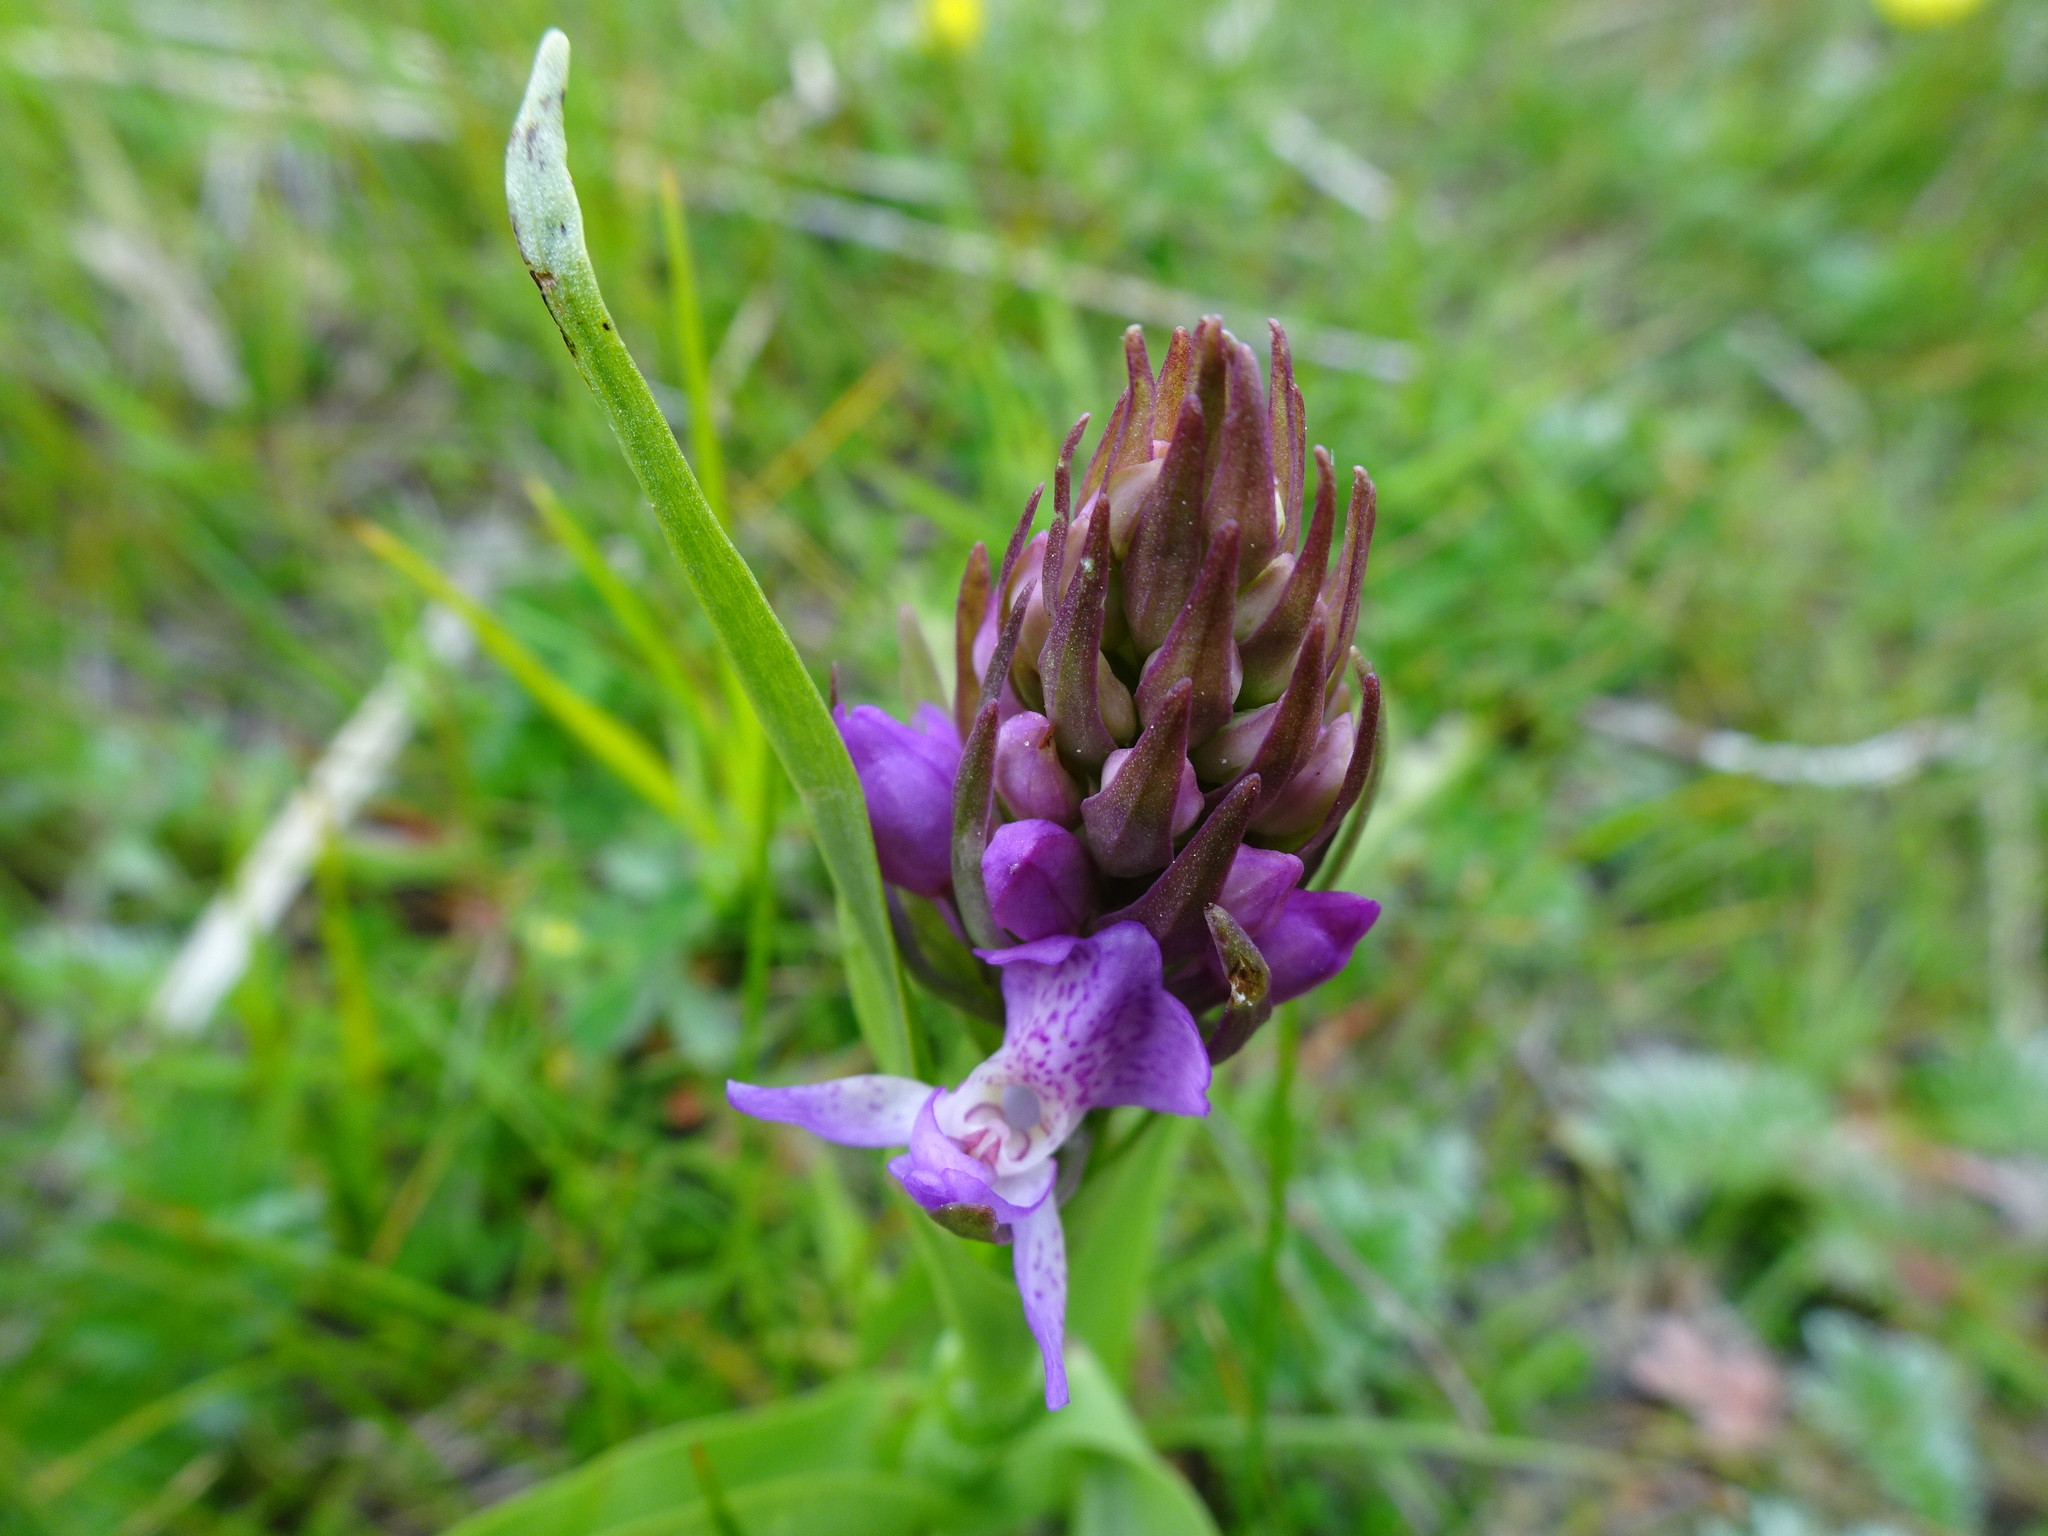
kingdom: Plantae
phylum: Tracheophyta
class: Liliopsida
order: Asparagales
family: Orchidaceae
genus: Dactylorhiza
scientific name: Dactylorhiza maculata
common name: Heath spotted-orchid
